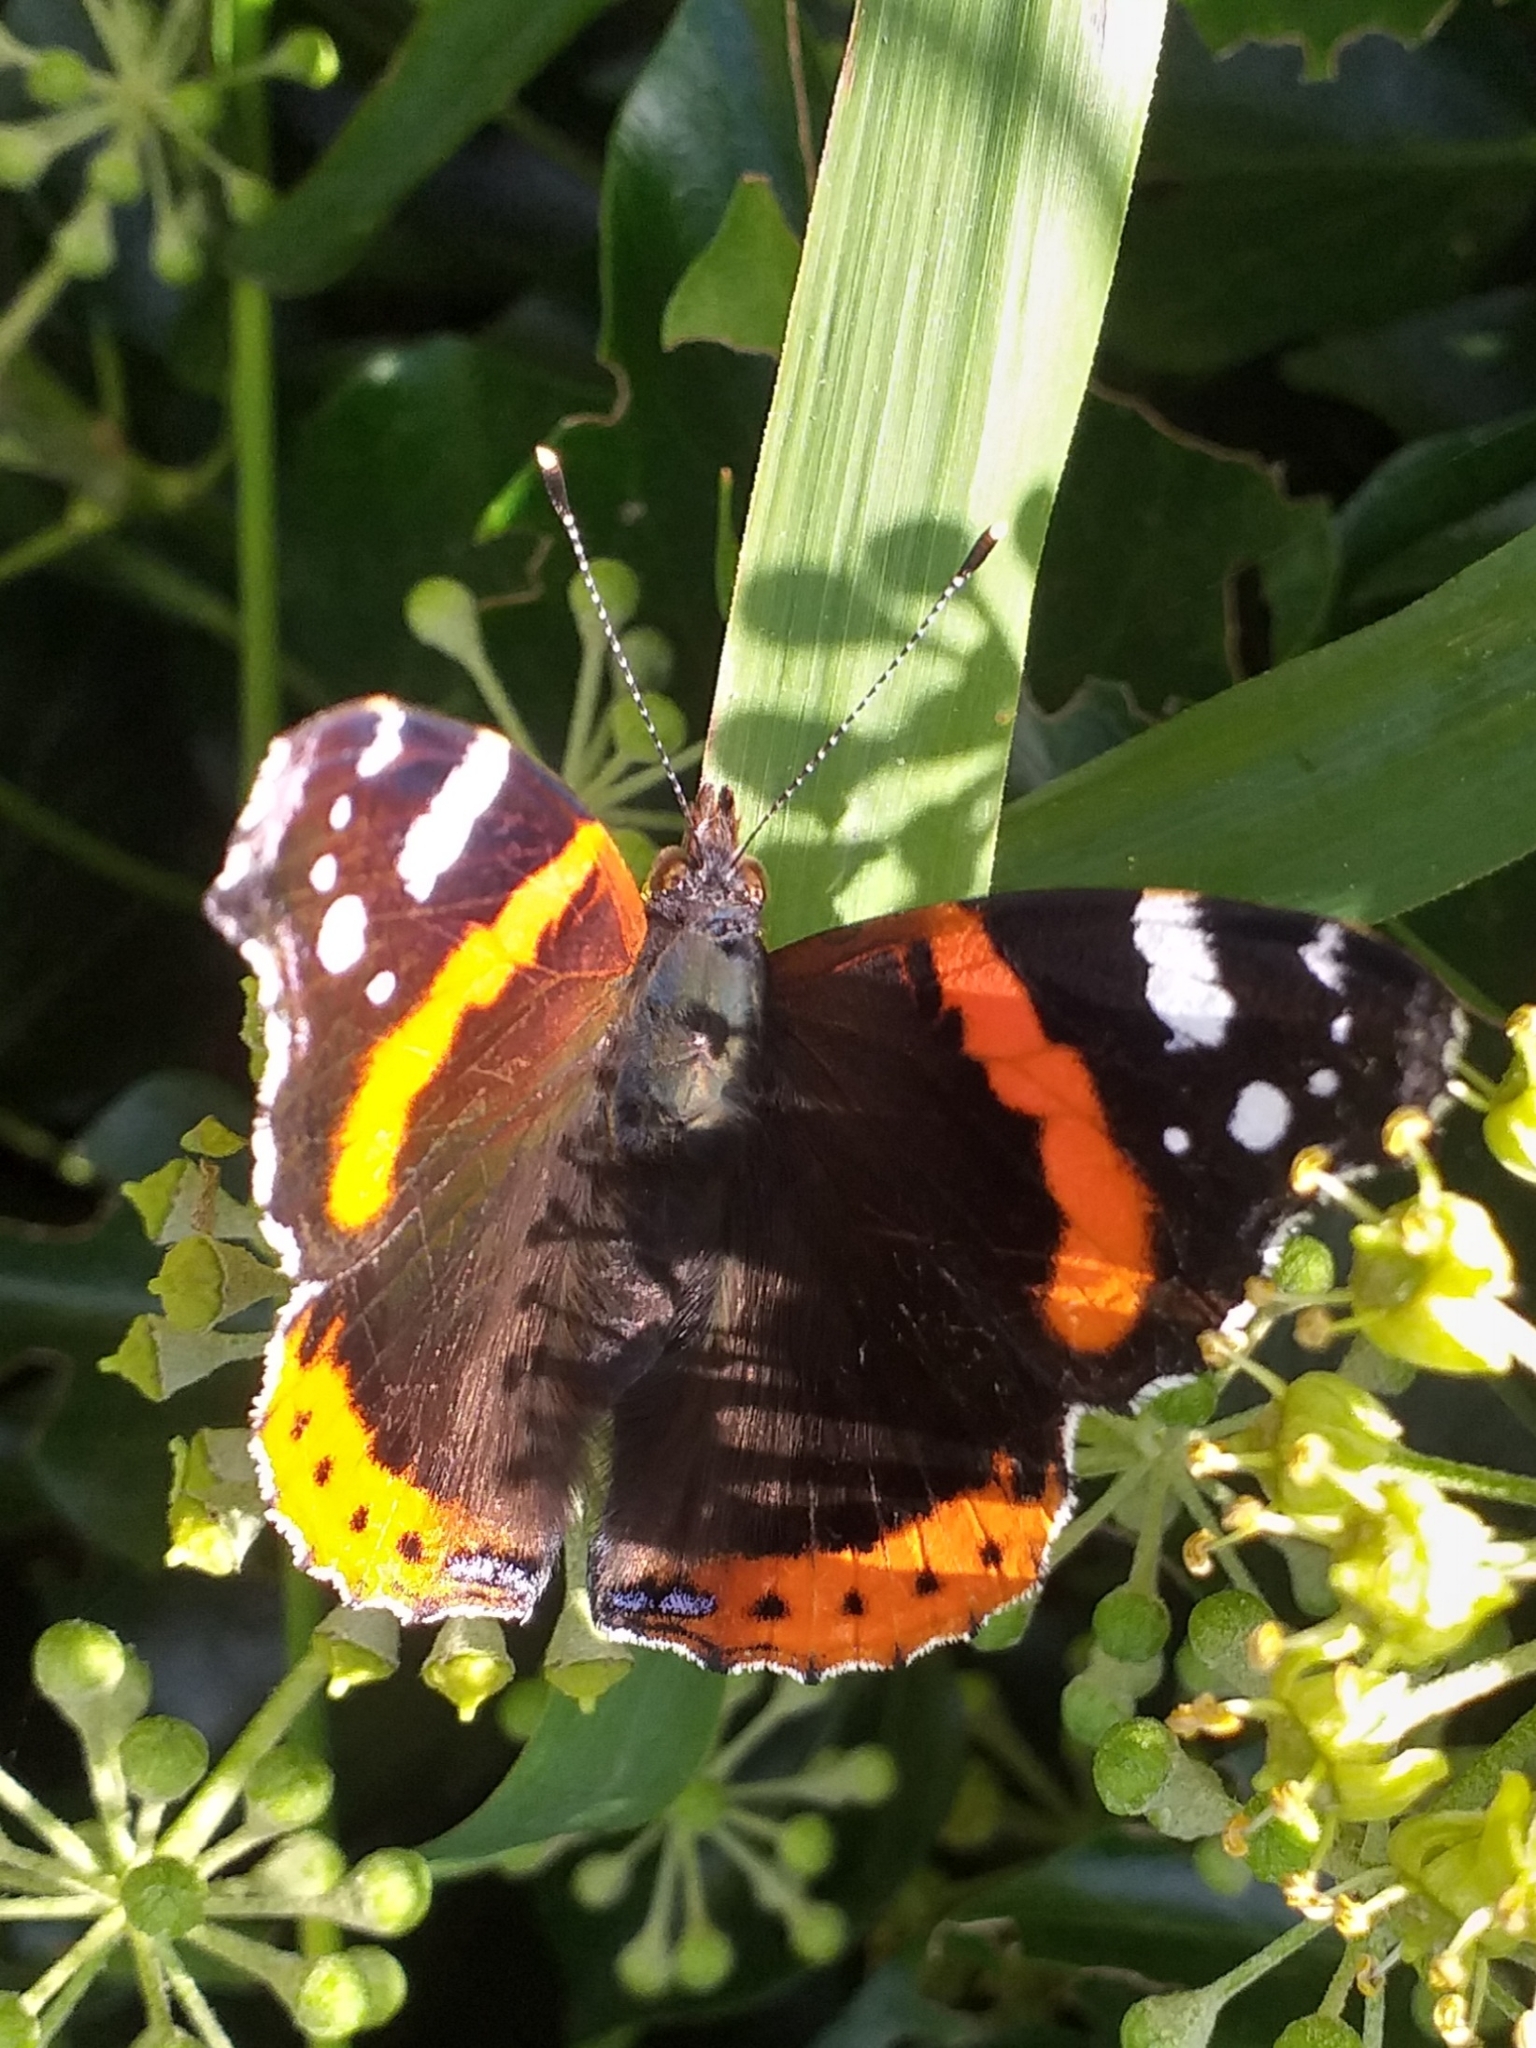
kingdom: Animalia
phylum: Arthropoda
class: Insecta
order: Lepidoptera
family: Nymphalidae
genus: Vanessa
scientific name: Vanessa atalanta
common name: Red admiral
